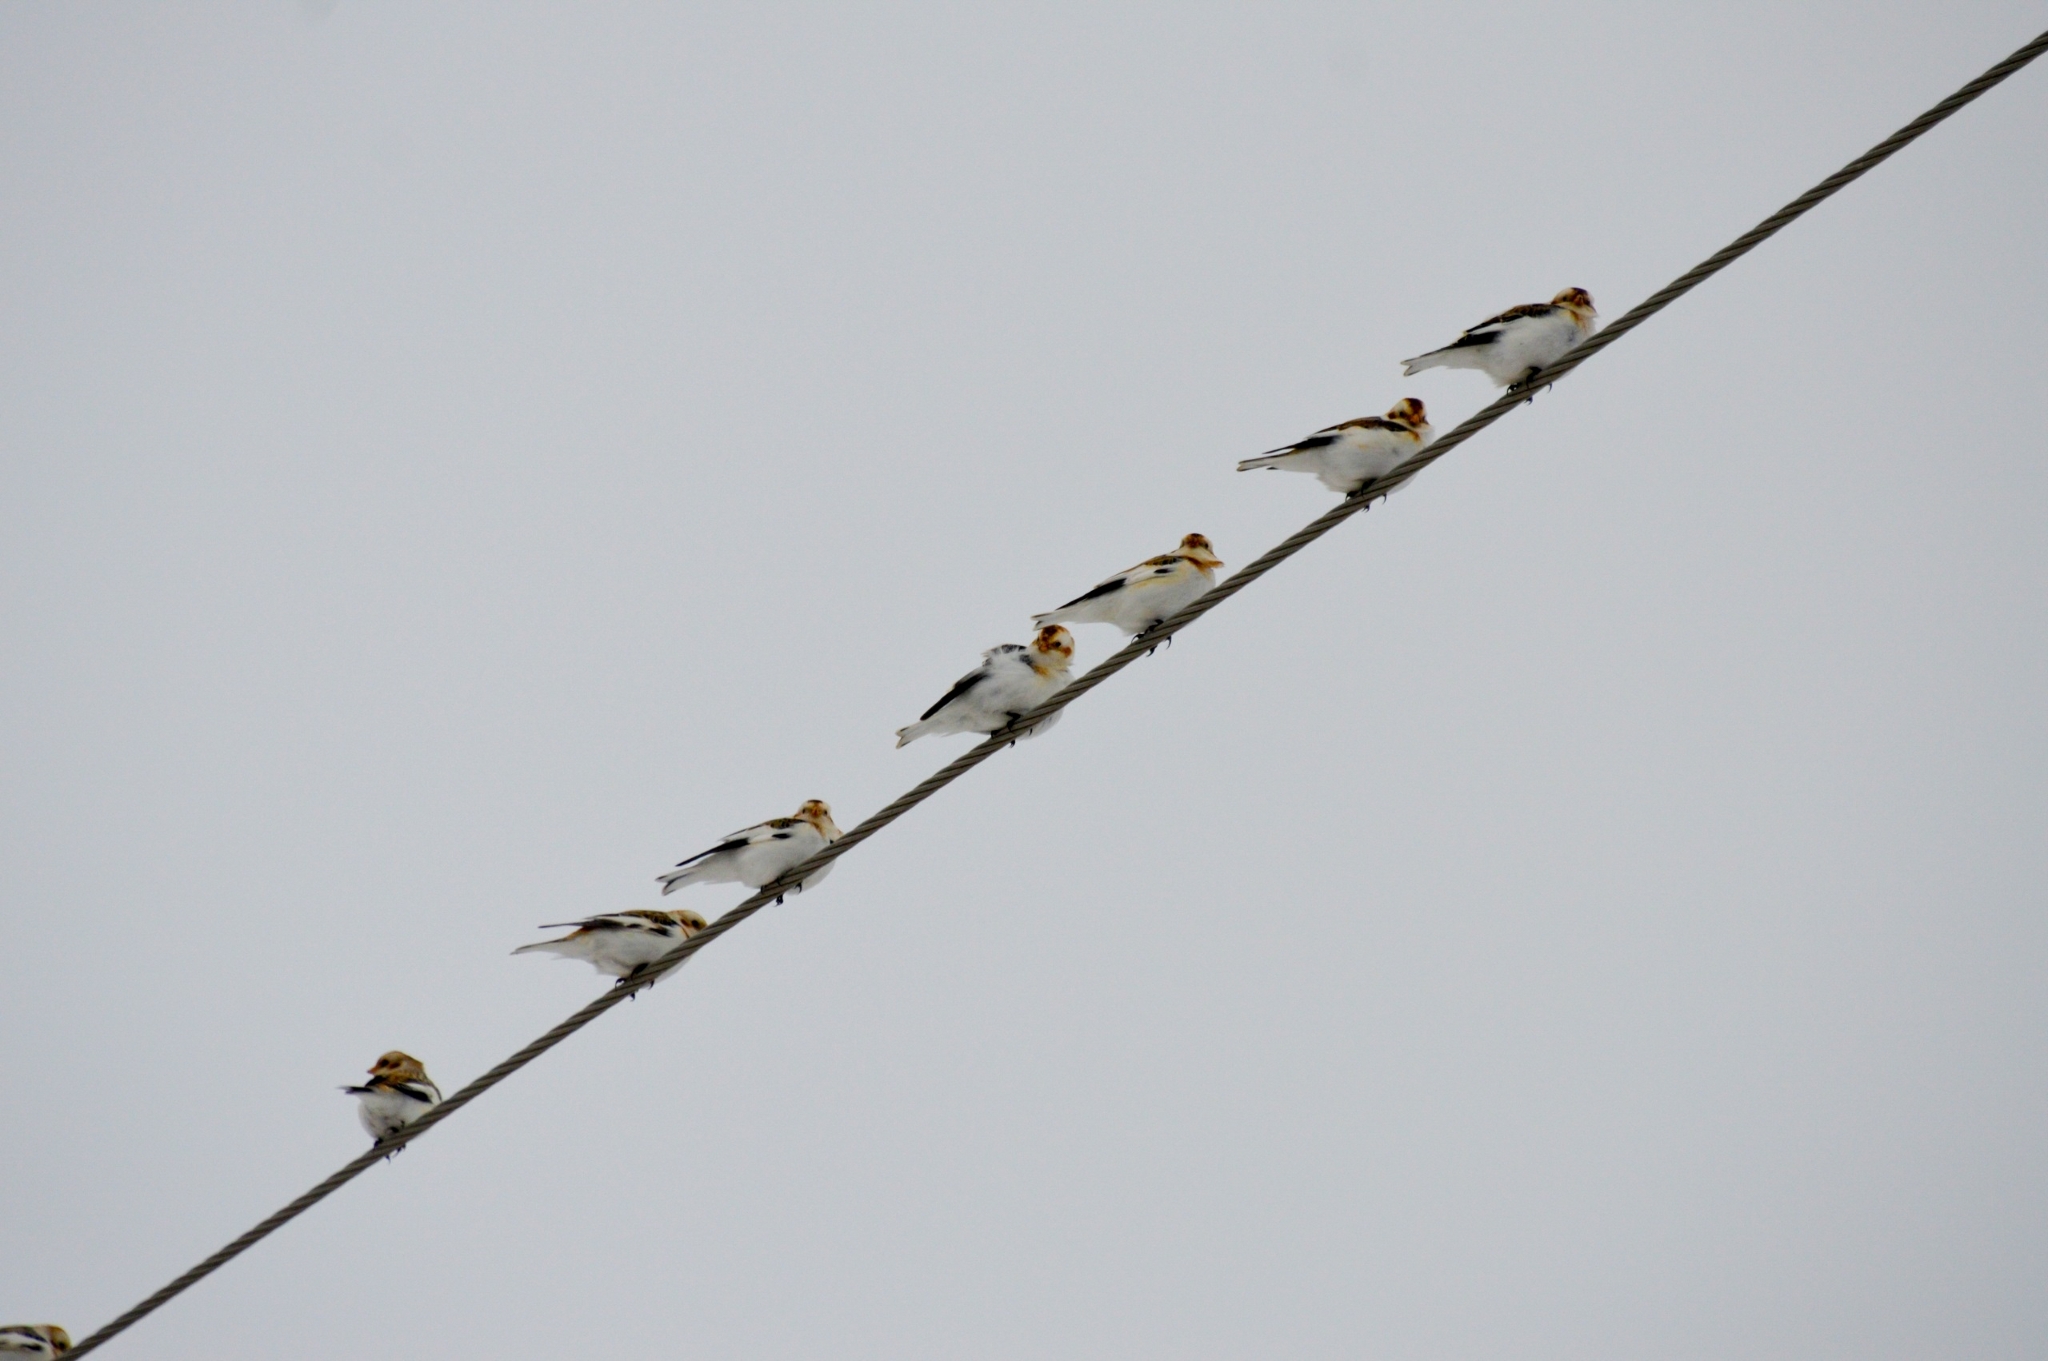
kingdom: Animalia
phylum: Chordata
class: Aves
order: Passeriformes
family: Calcariidae
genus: Plectrophenax
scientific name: Plectrophenax nivalis
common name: Snow bunting
